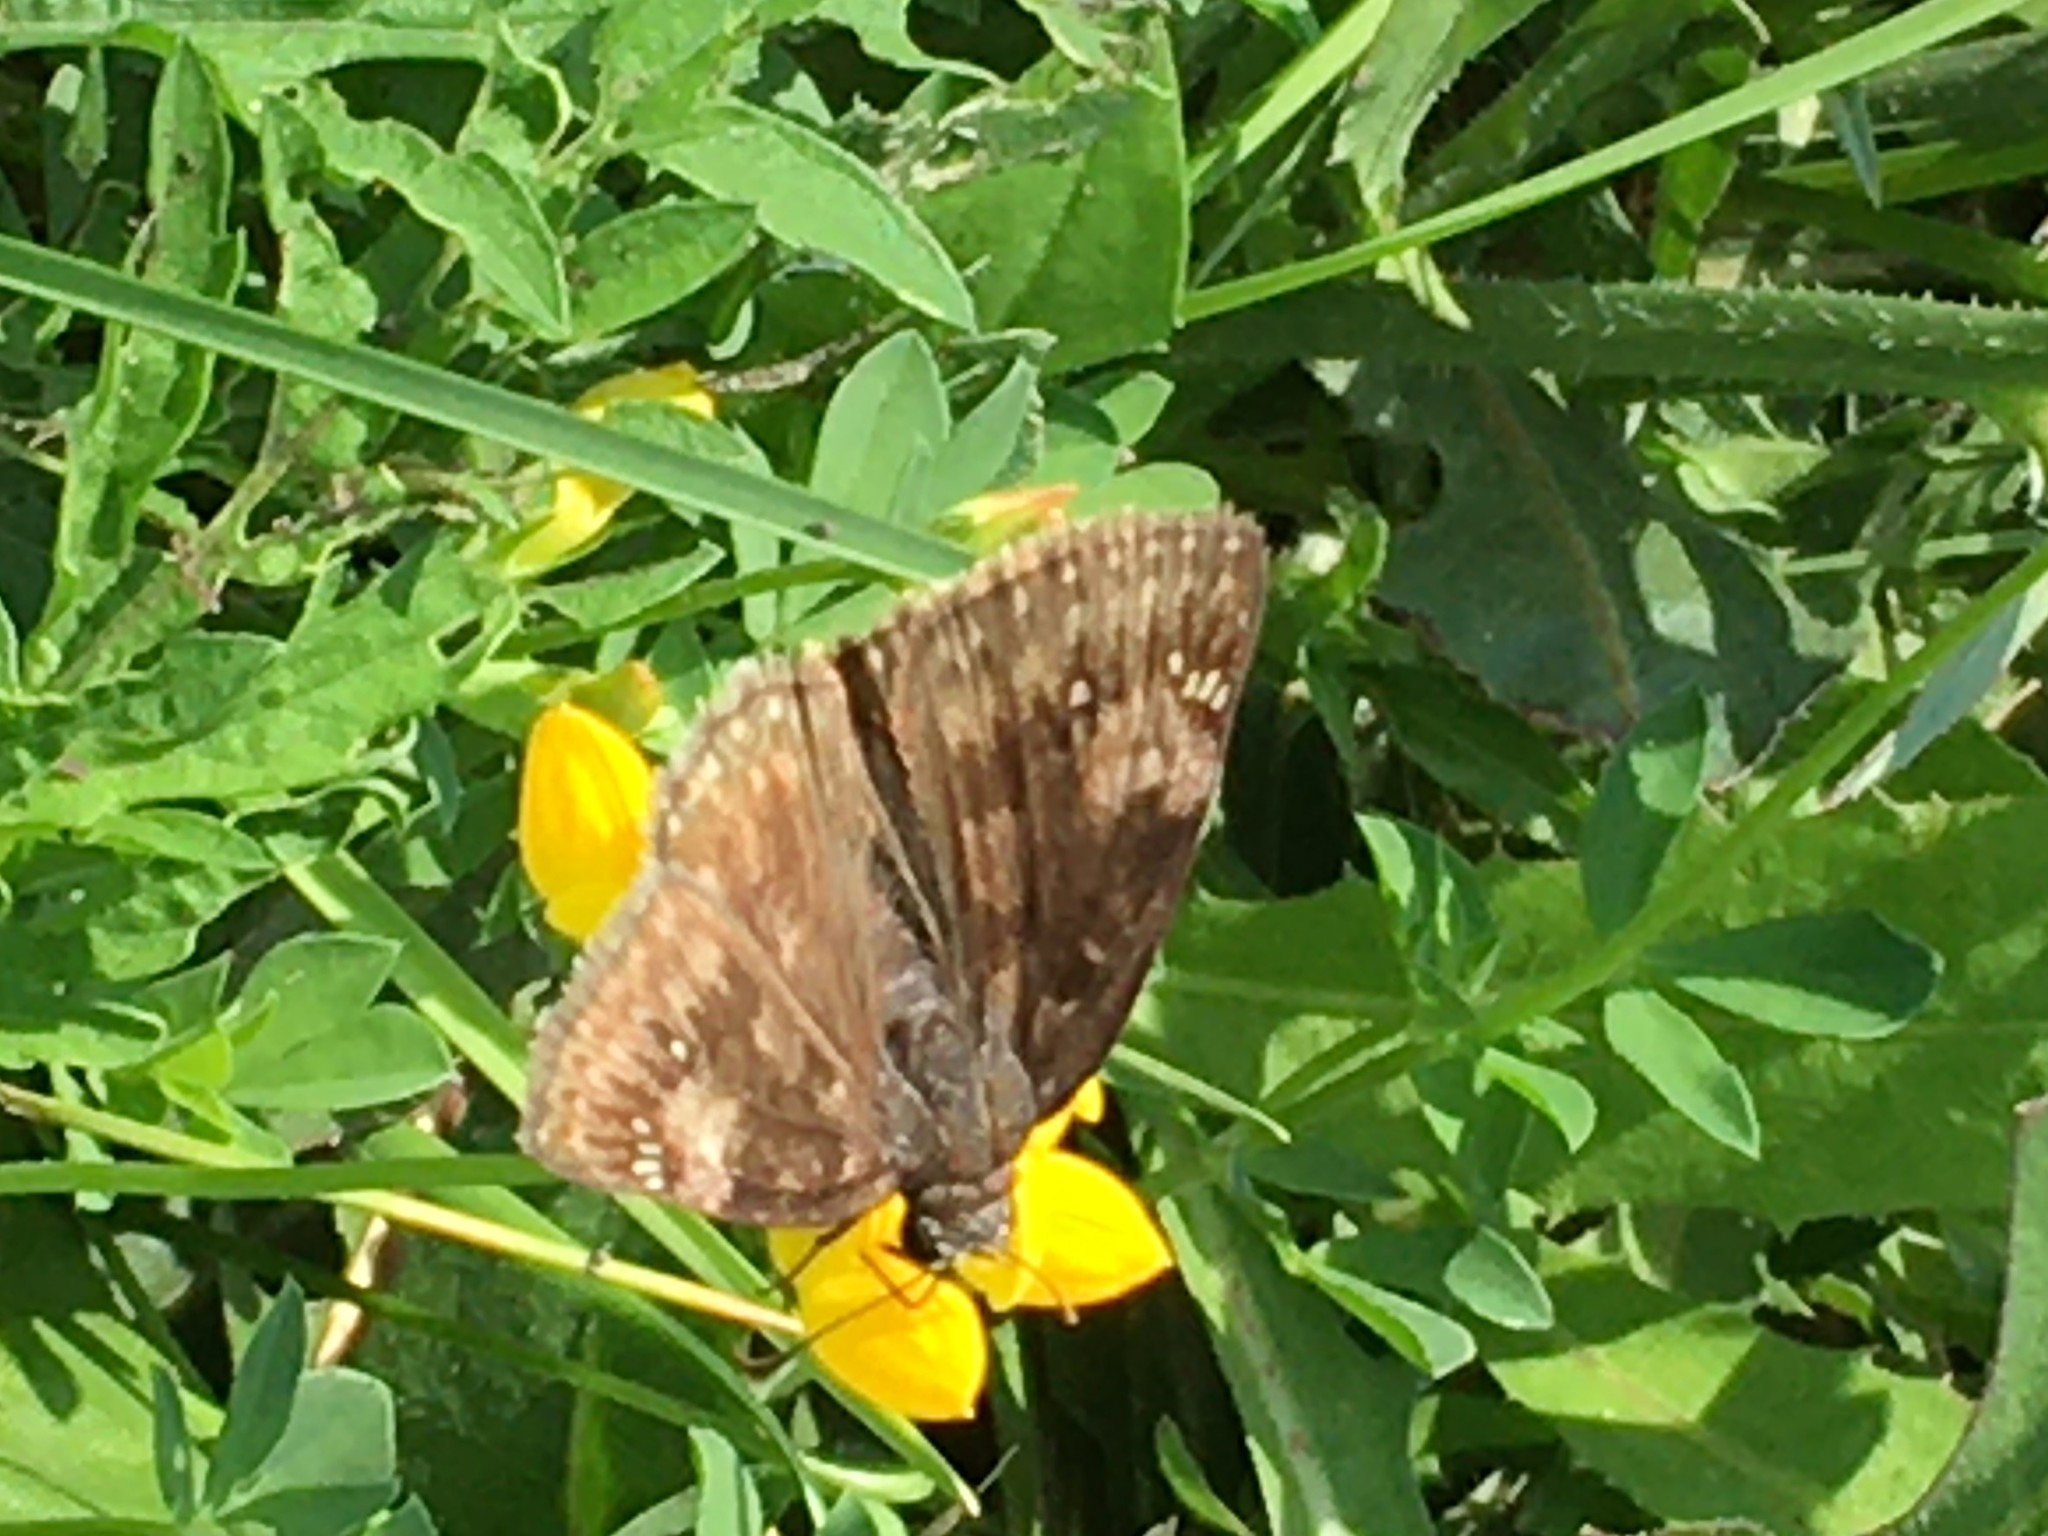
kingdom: Animalia
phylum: Arthropoda
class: Insecta
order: Lepidoptera
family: Hesperiidae
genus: Erynnis
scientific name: Erynnis baptisiae
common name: Wild indigo duskywing
